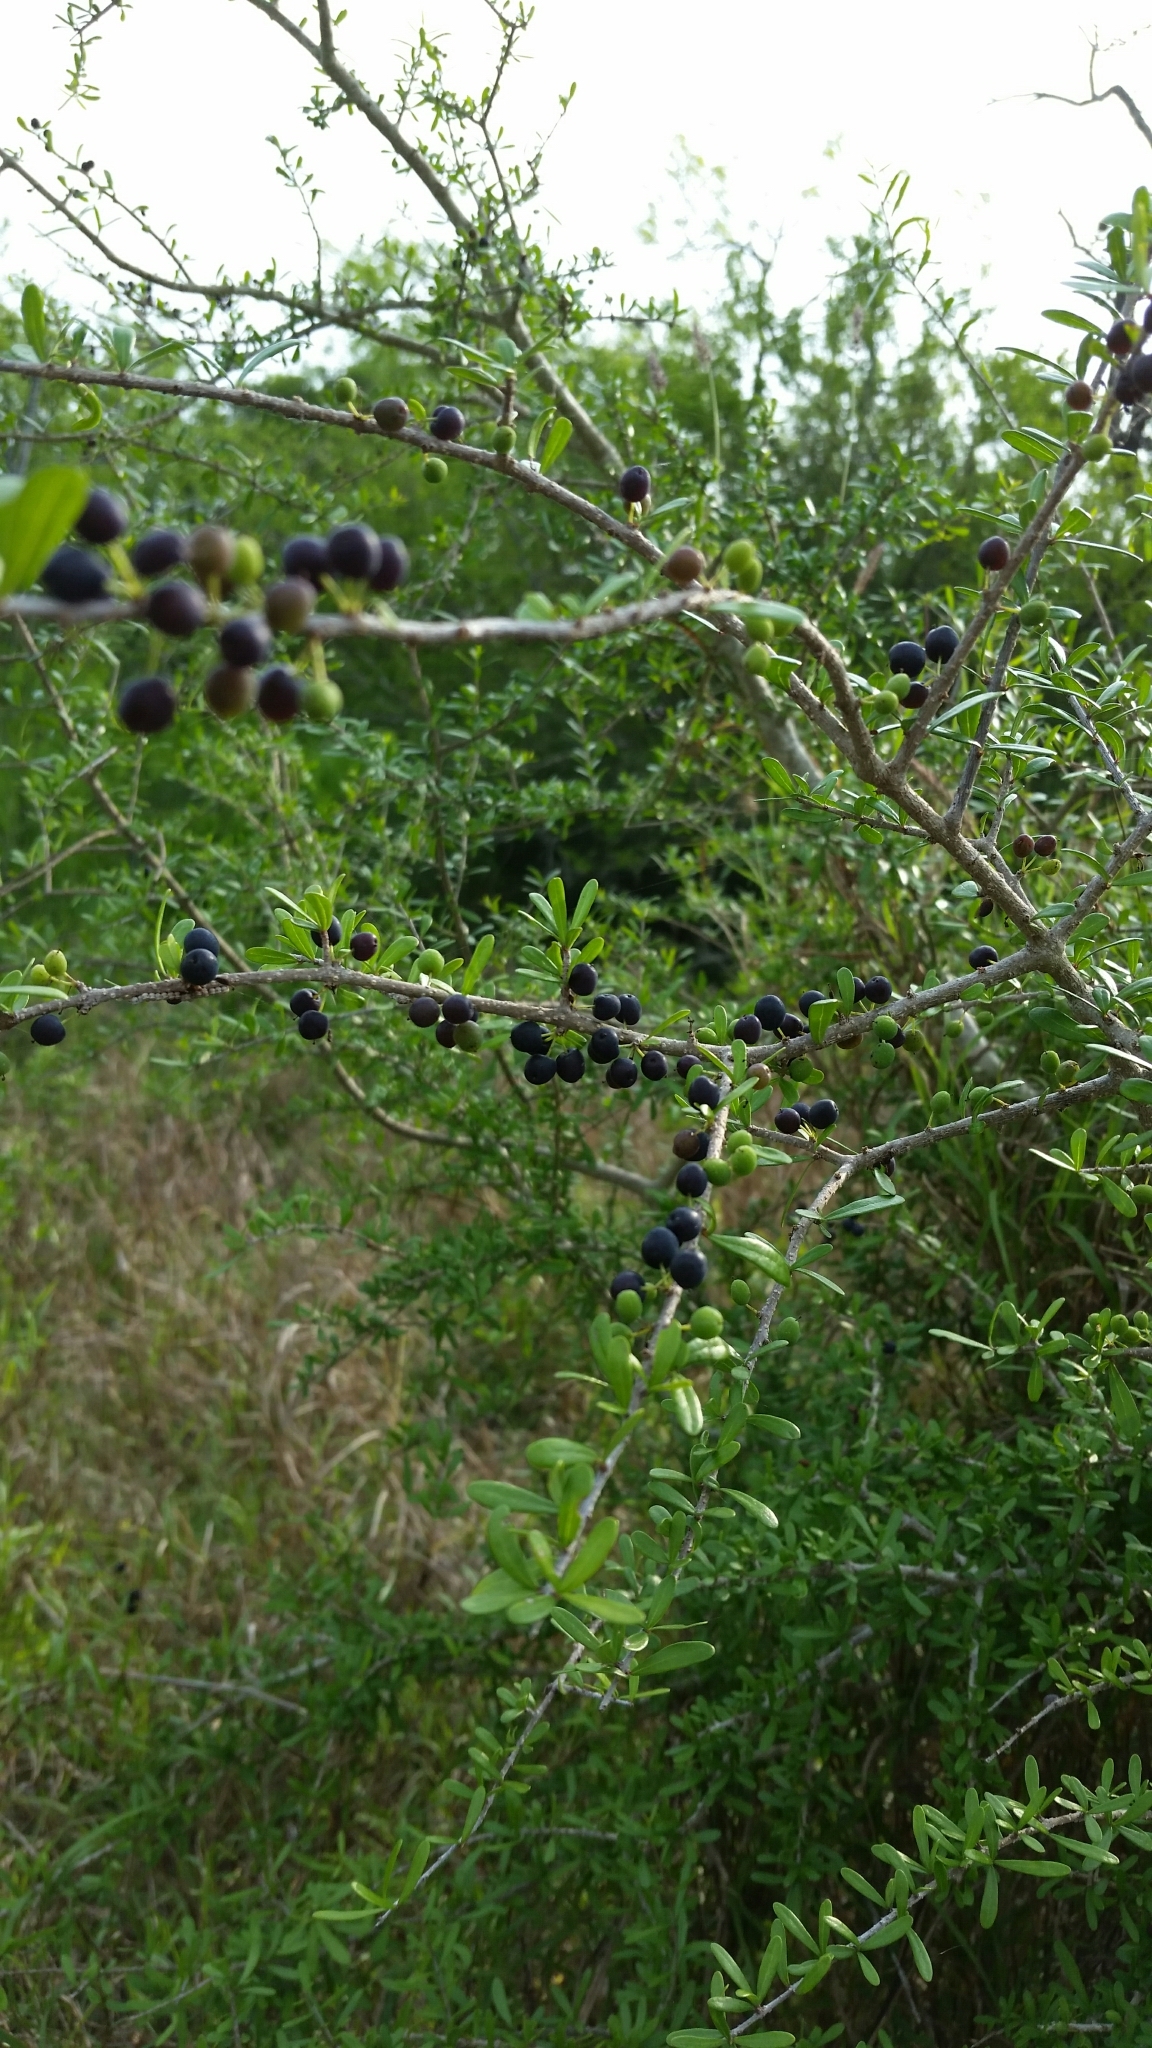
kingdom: Plantae
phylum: Tracheophyta
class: Magnoliopsida
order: Lamiales
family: Oleaceae
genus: Forestiera
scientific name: Forestiera angustifolia
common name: Elbowbush
